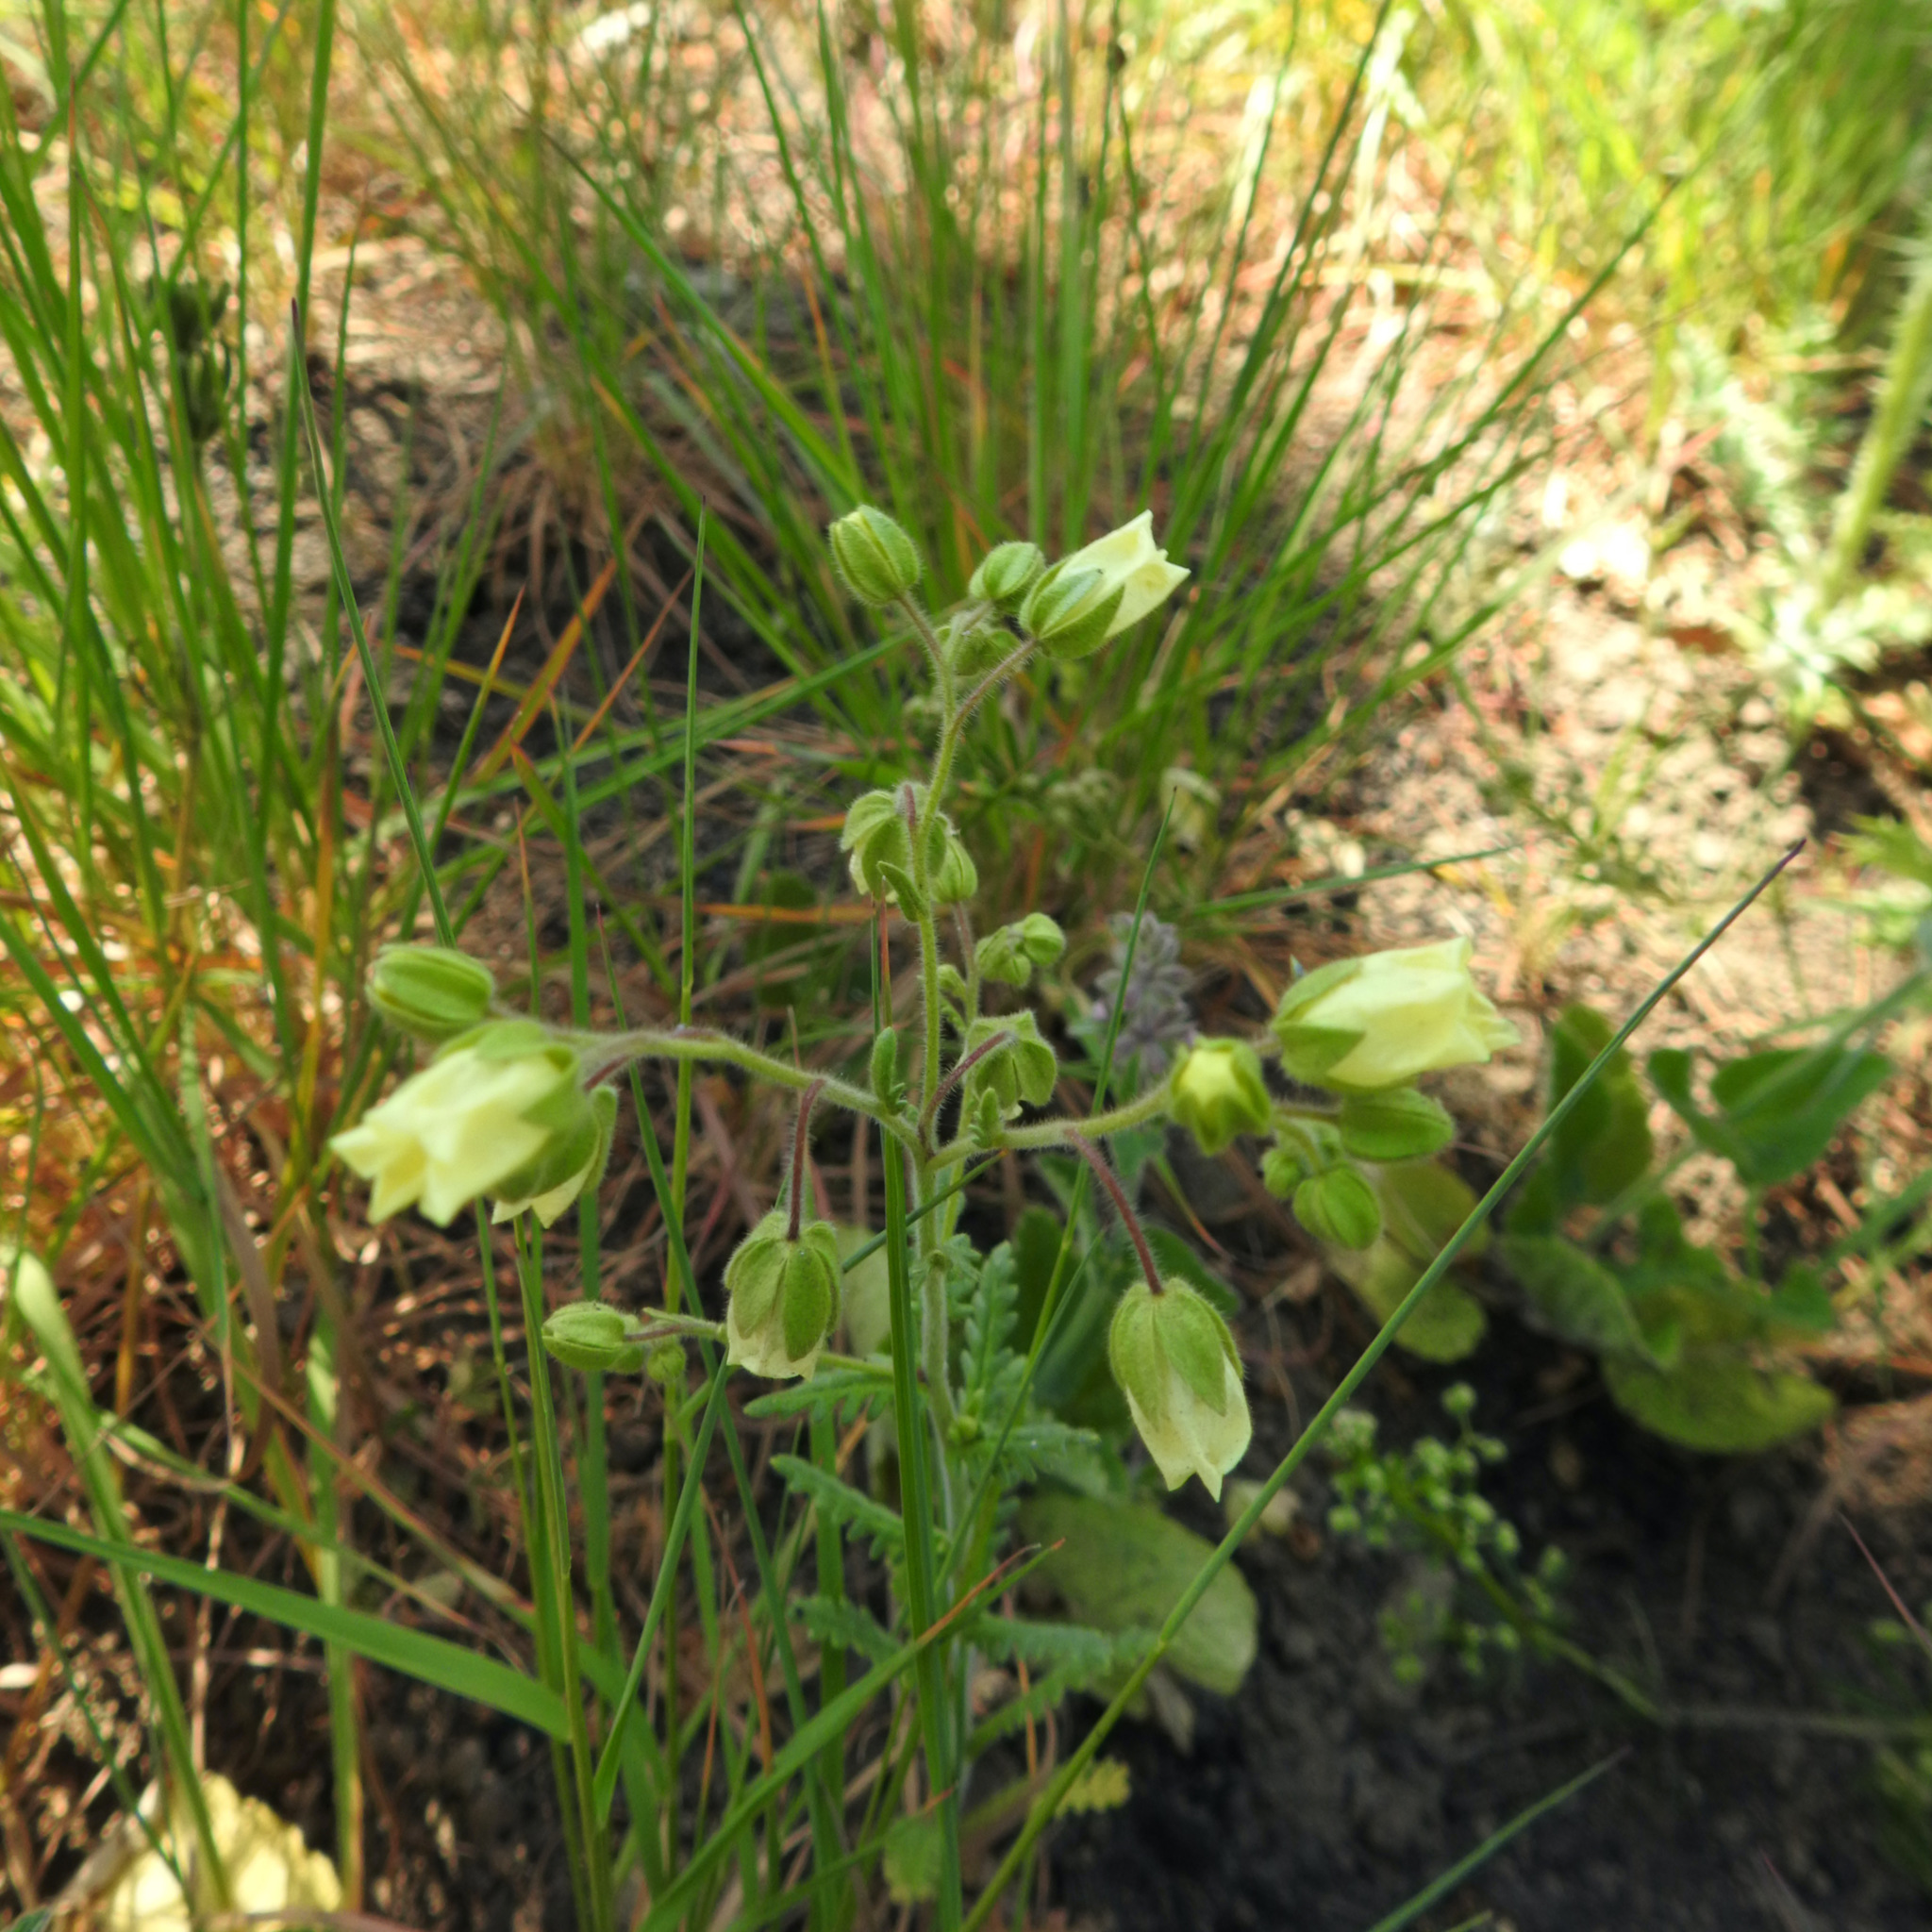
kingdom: Plantae
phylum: Tracheophyta
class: Magnoliopsida
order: Boraginales
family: Hydrophyllaceae
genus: Emmenanthe
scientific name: Emmenanthe penduliflora
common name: Whispering-bells
